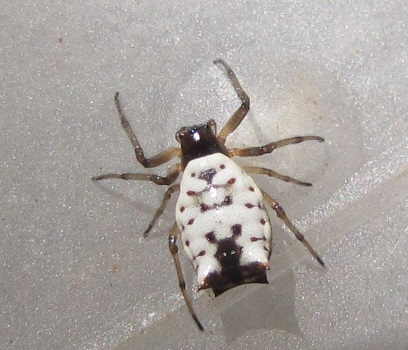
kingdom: Animalia
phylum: Arthropoda
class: Arachnida
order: Araneae
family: Araneidae
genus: Micrathena
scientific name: Micrathena mitrata
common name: Orb weavers
